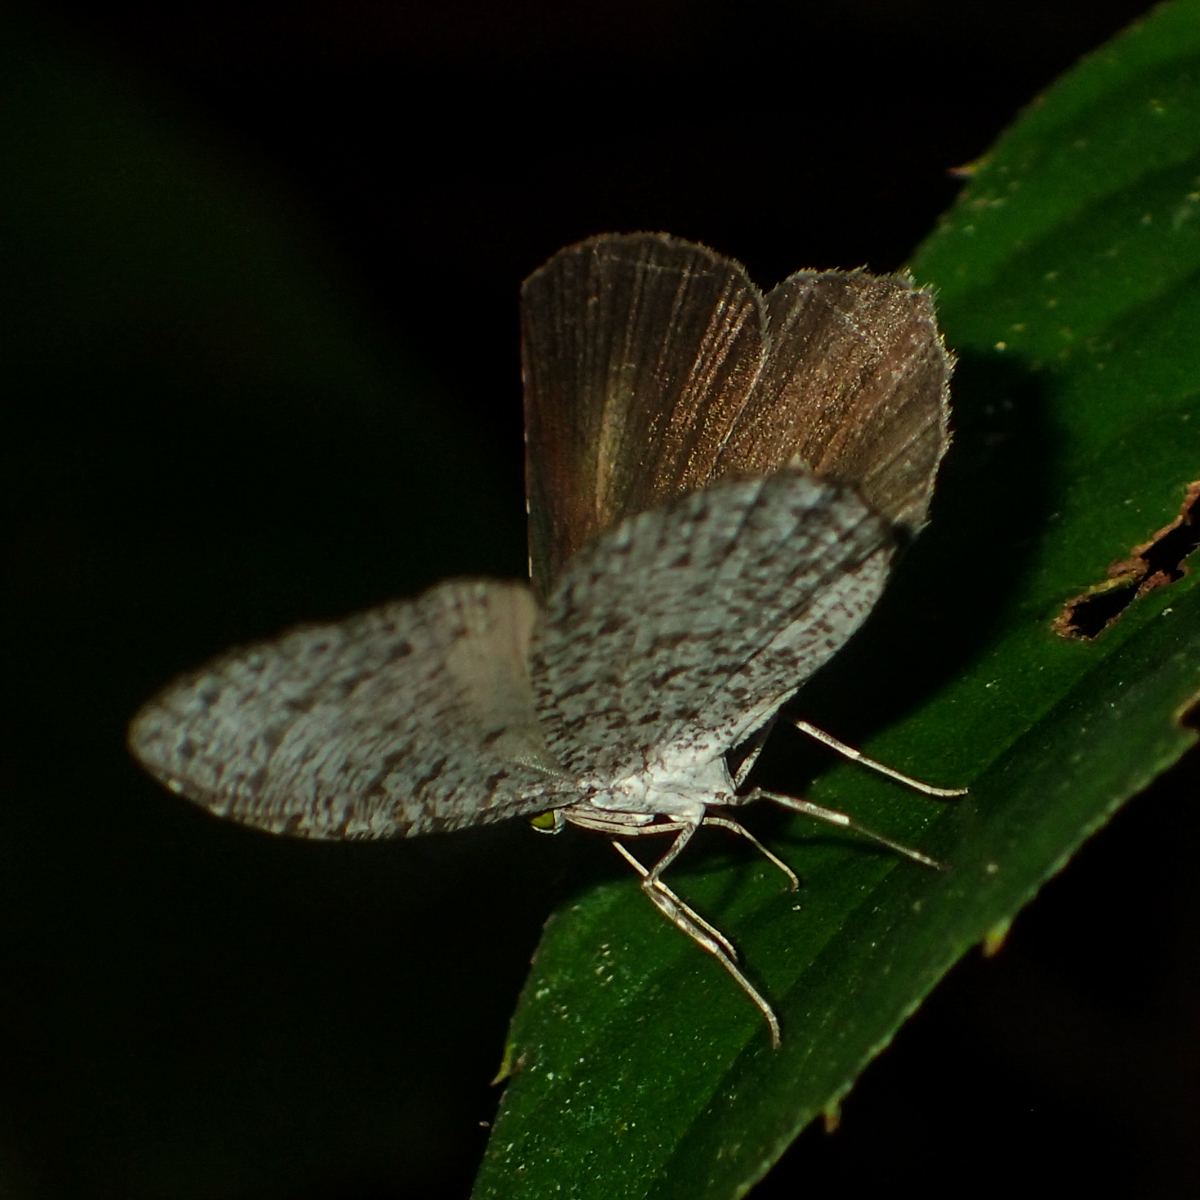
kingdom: Animalia
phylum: Arthropoda
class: Insecta
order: Lepidoptera
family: Lycaenidae
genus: Allotinus
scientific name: Allotinus unicolor
